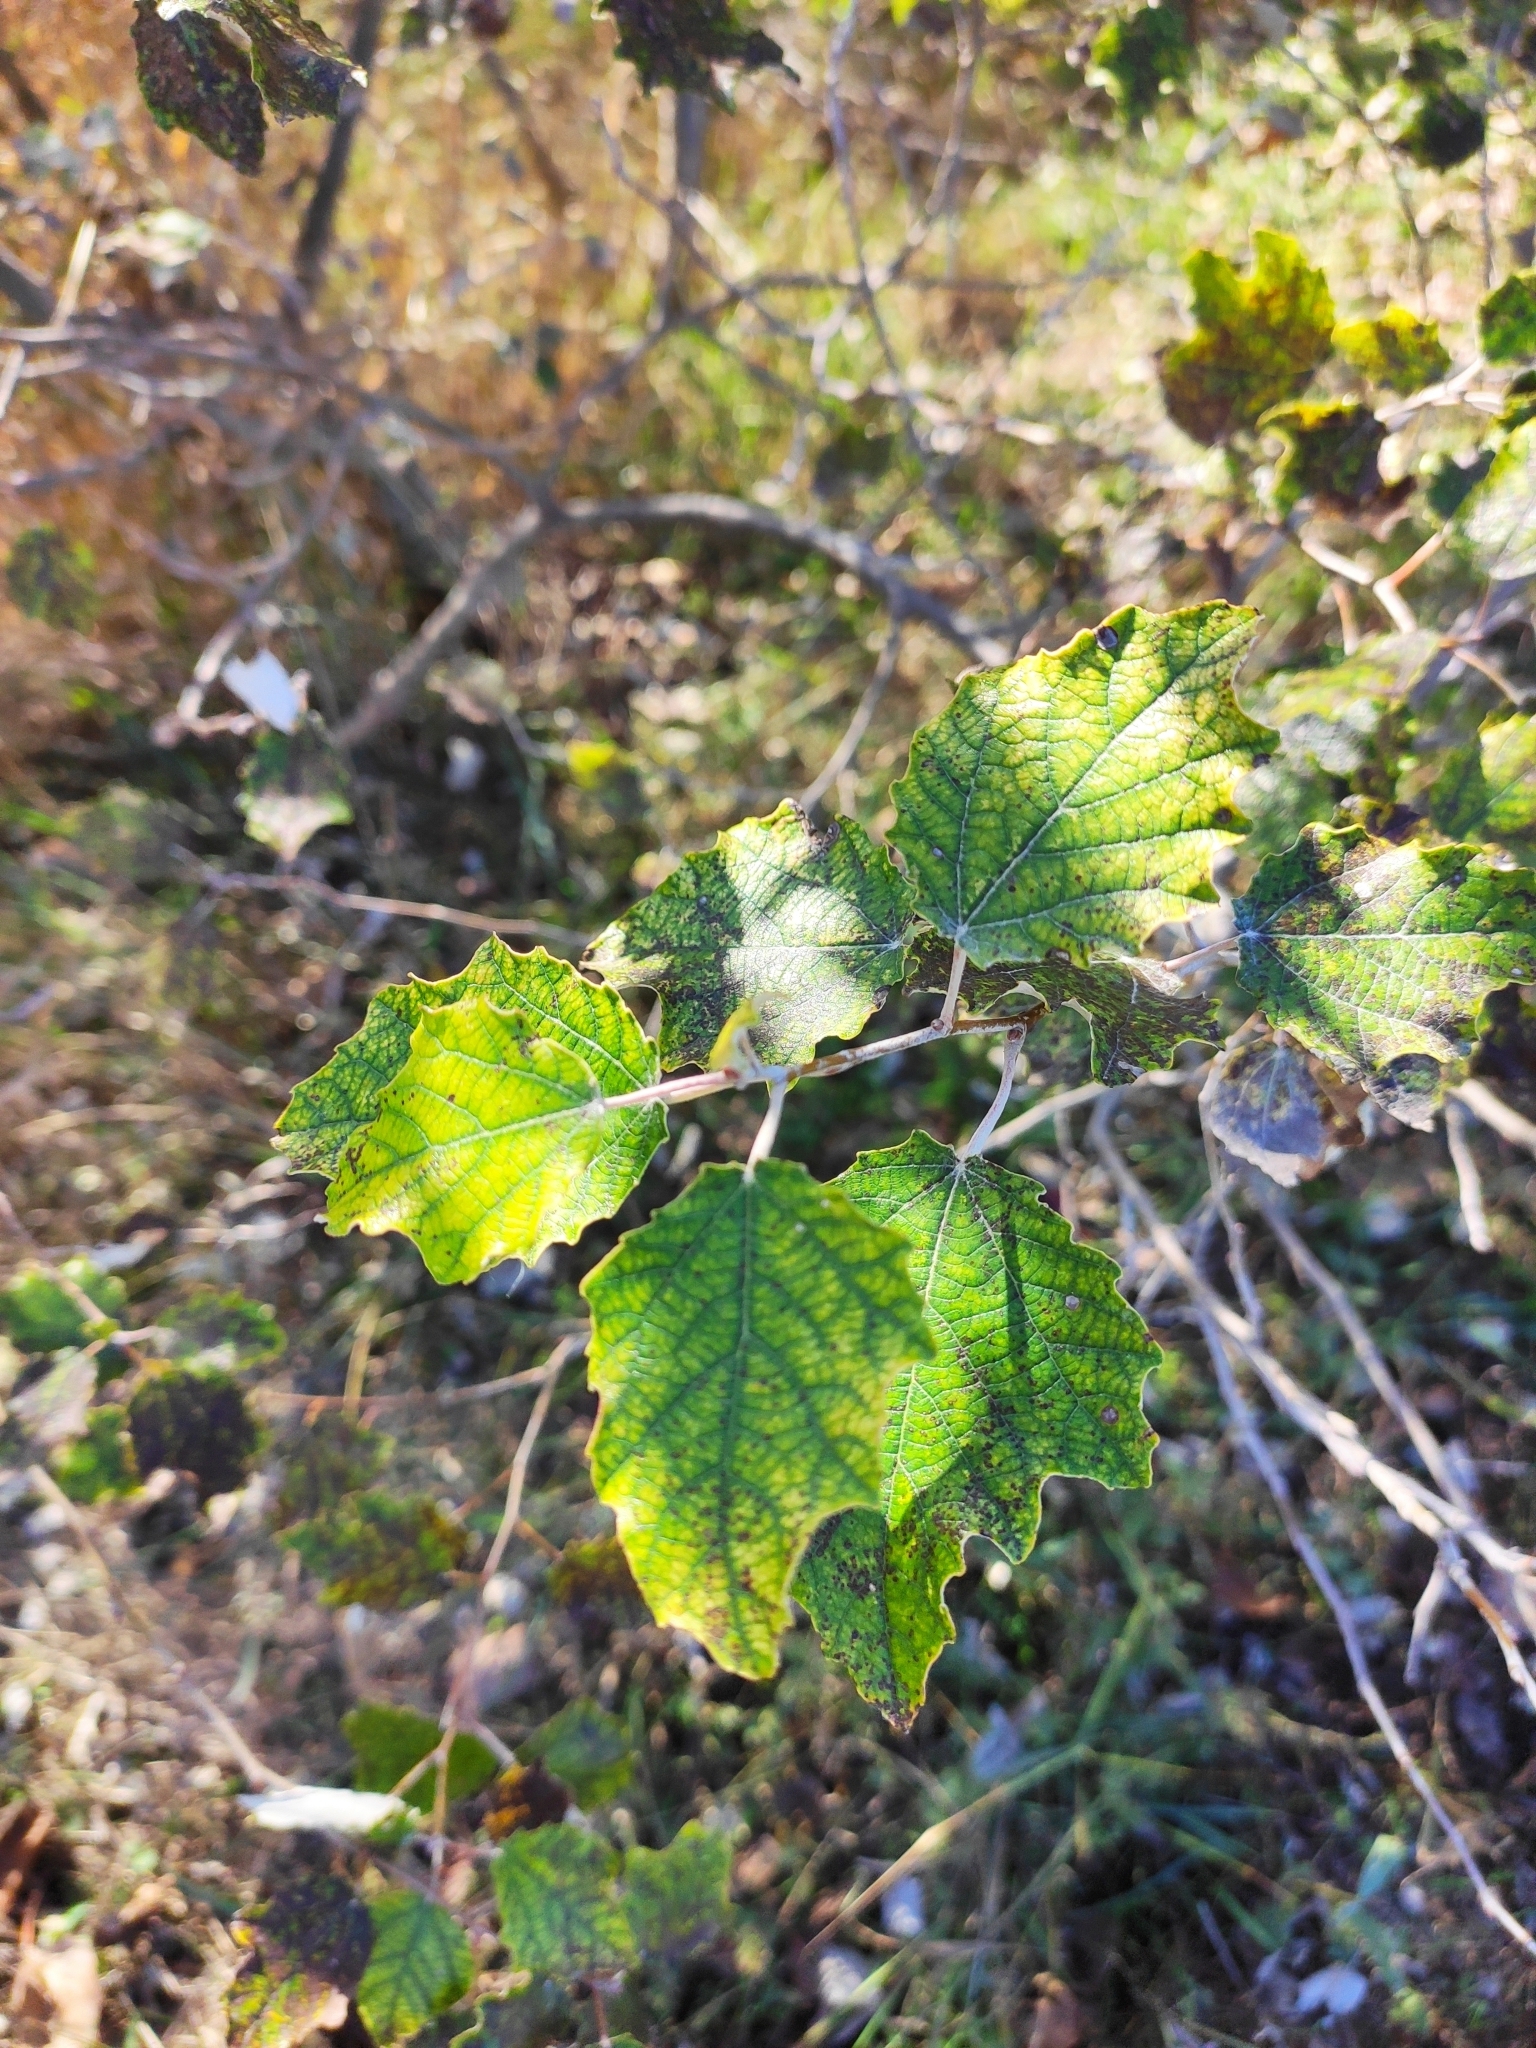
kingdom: Plantae
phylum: Tracheophyta
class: Magnoliopsida
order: Malpighiales
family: Salicaceae
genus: Populus
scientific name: Populus alba
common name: White poplar
